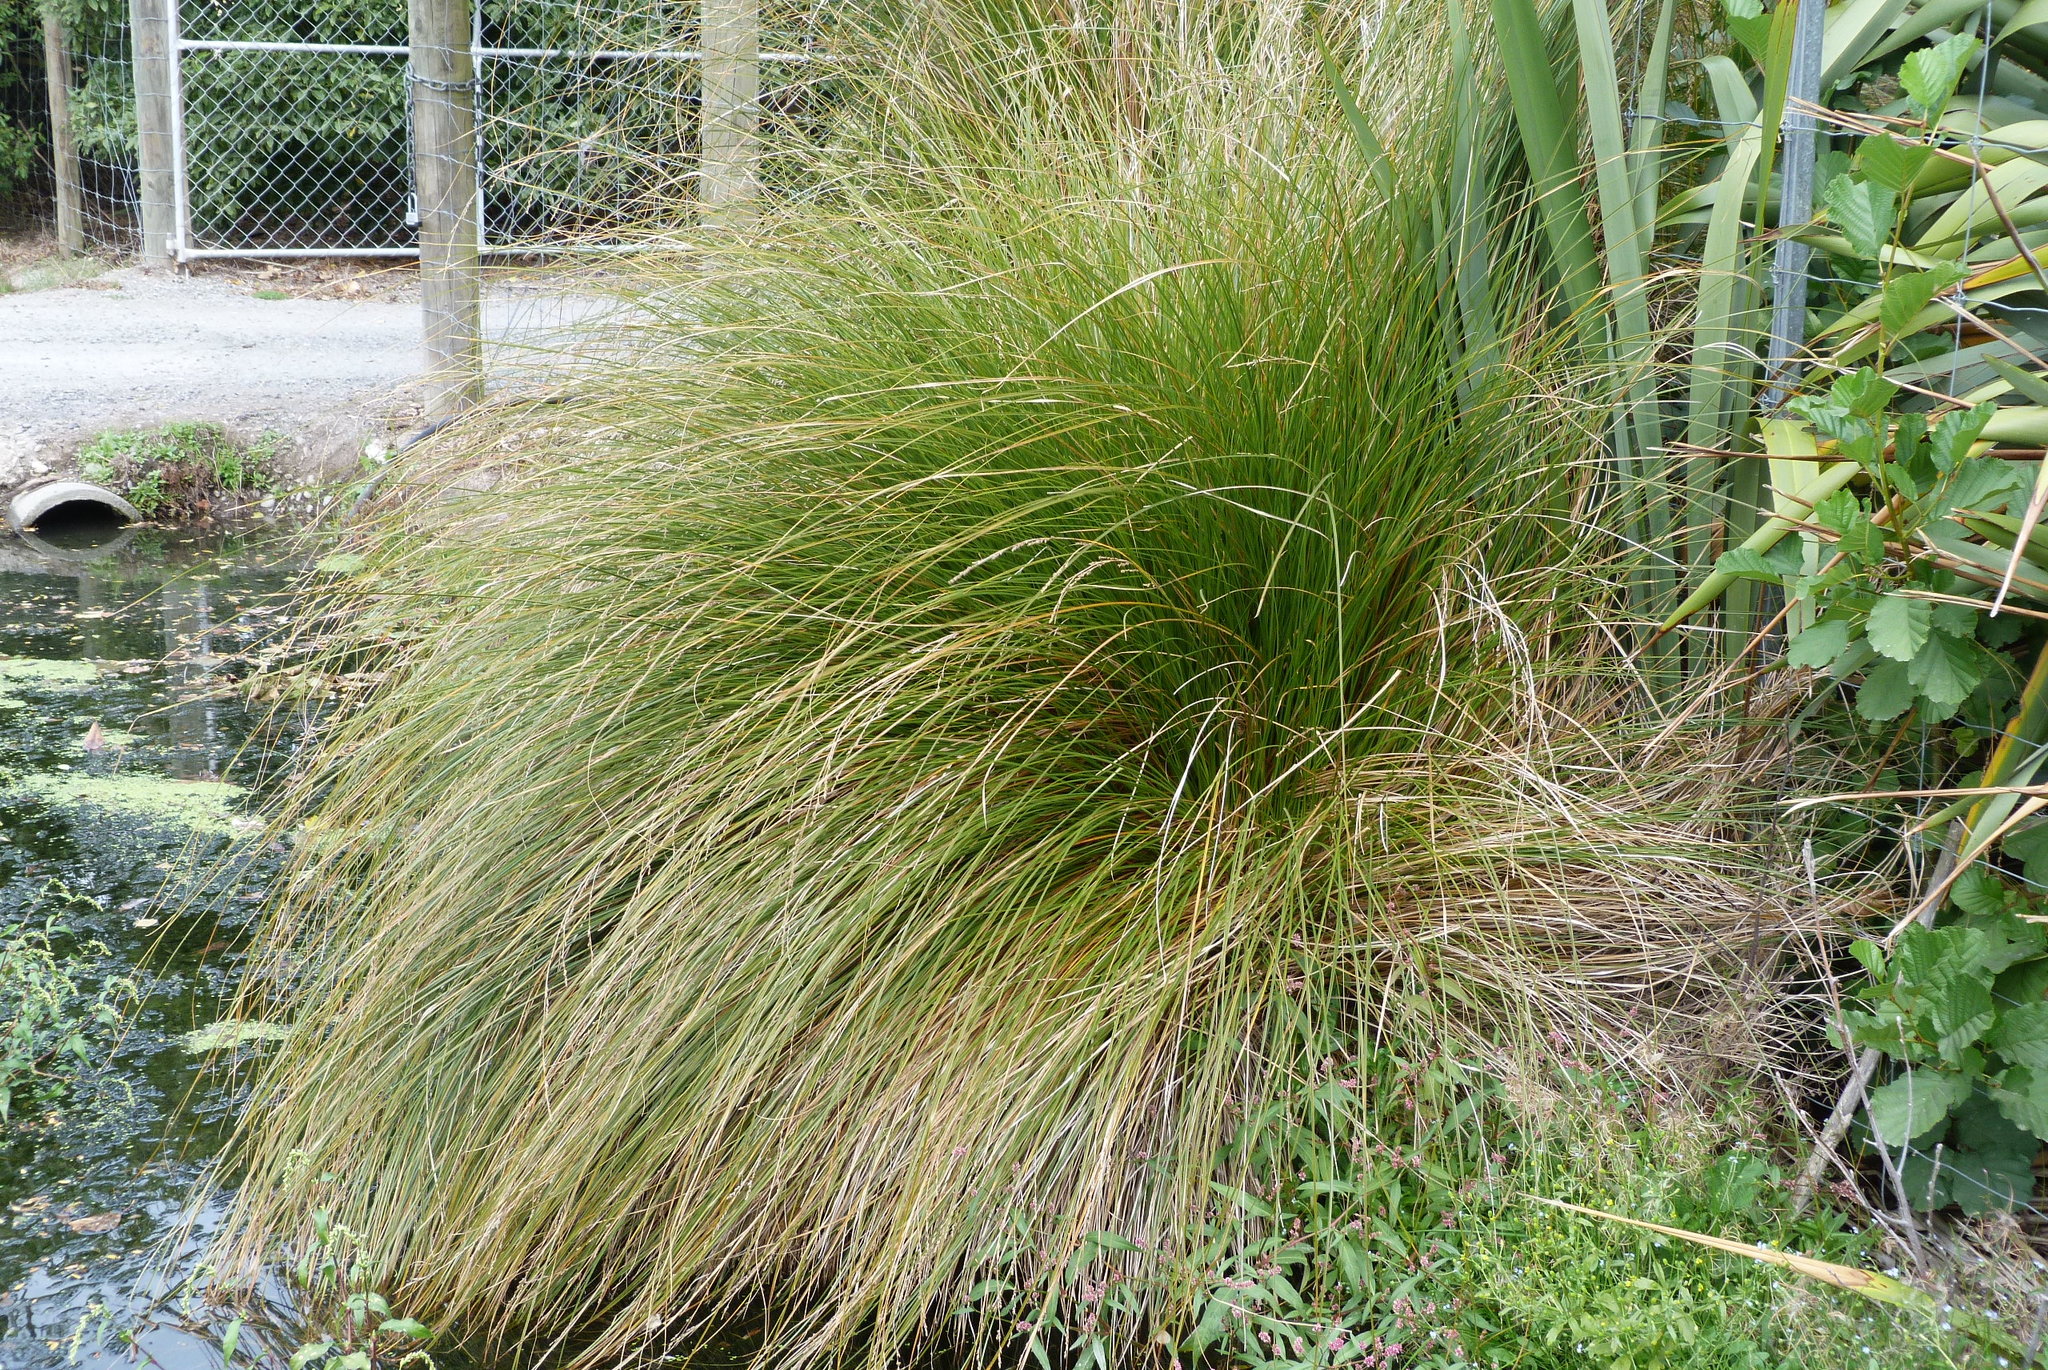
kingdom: Plantae
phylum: Tracheophyta
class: Liliopsida
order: Poales
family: Cyperaceae
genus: Carex
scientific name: Carex secta
